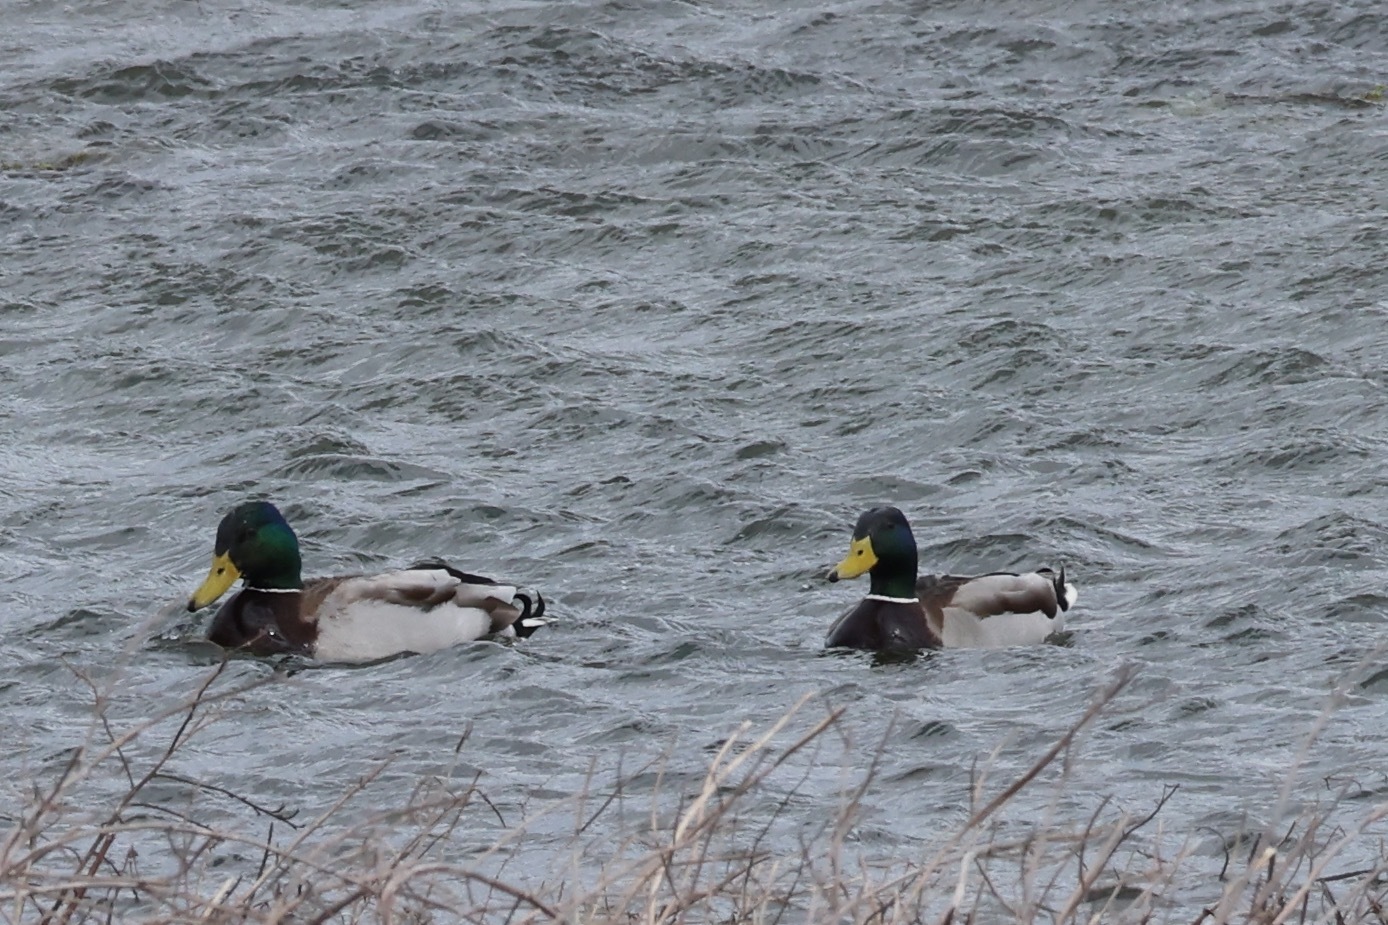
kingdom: Animalia
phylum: Chordata
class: Aves
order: Anseriformes
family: Anatidae
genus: Anas
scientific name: Anas platyrhynchos
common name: Mallard
